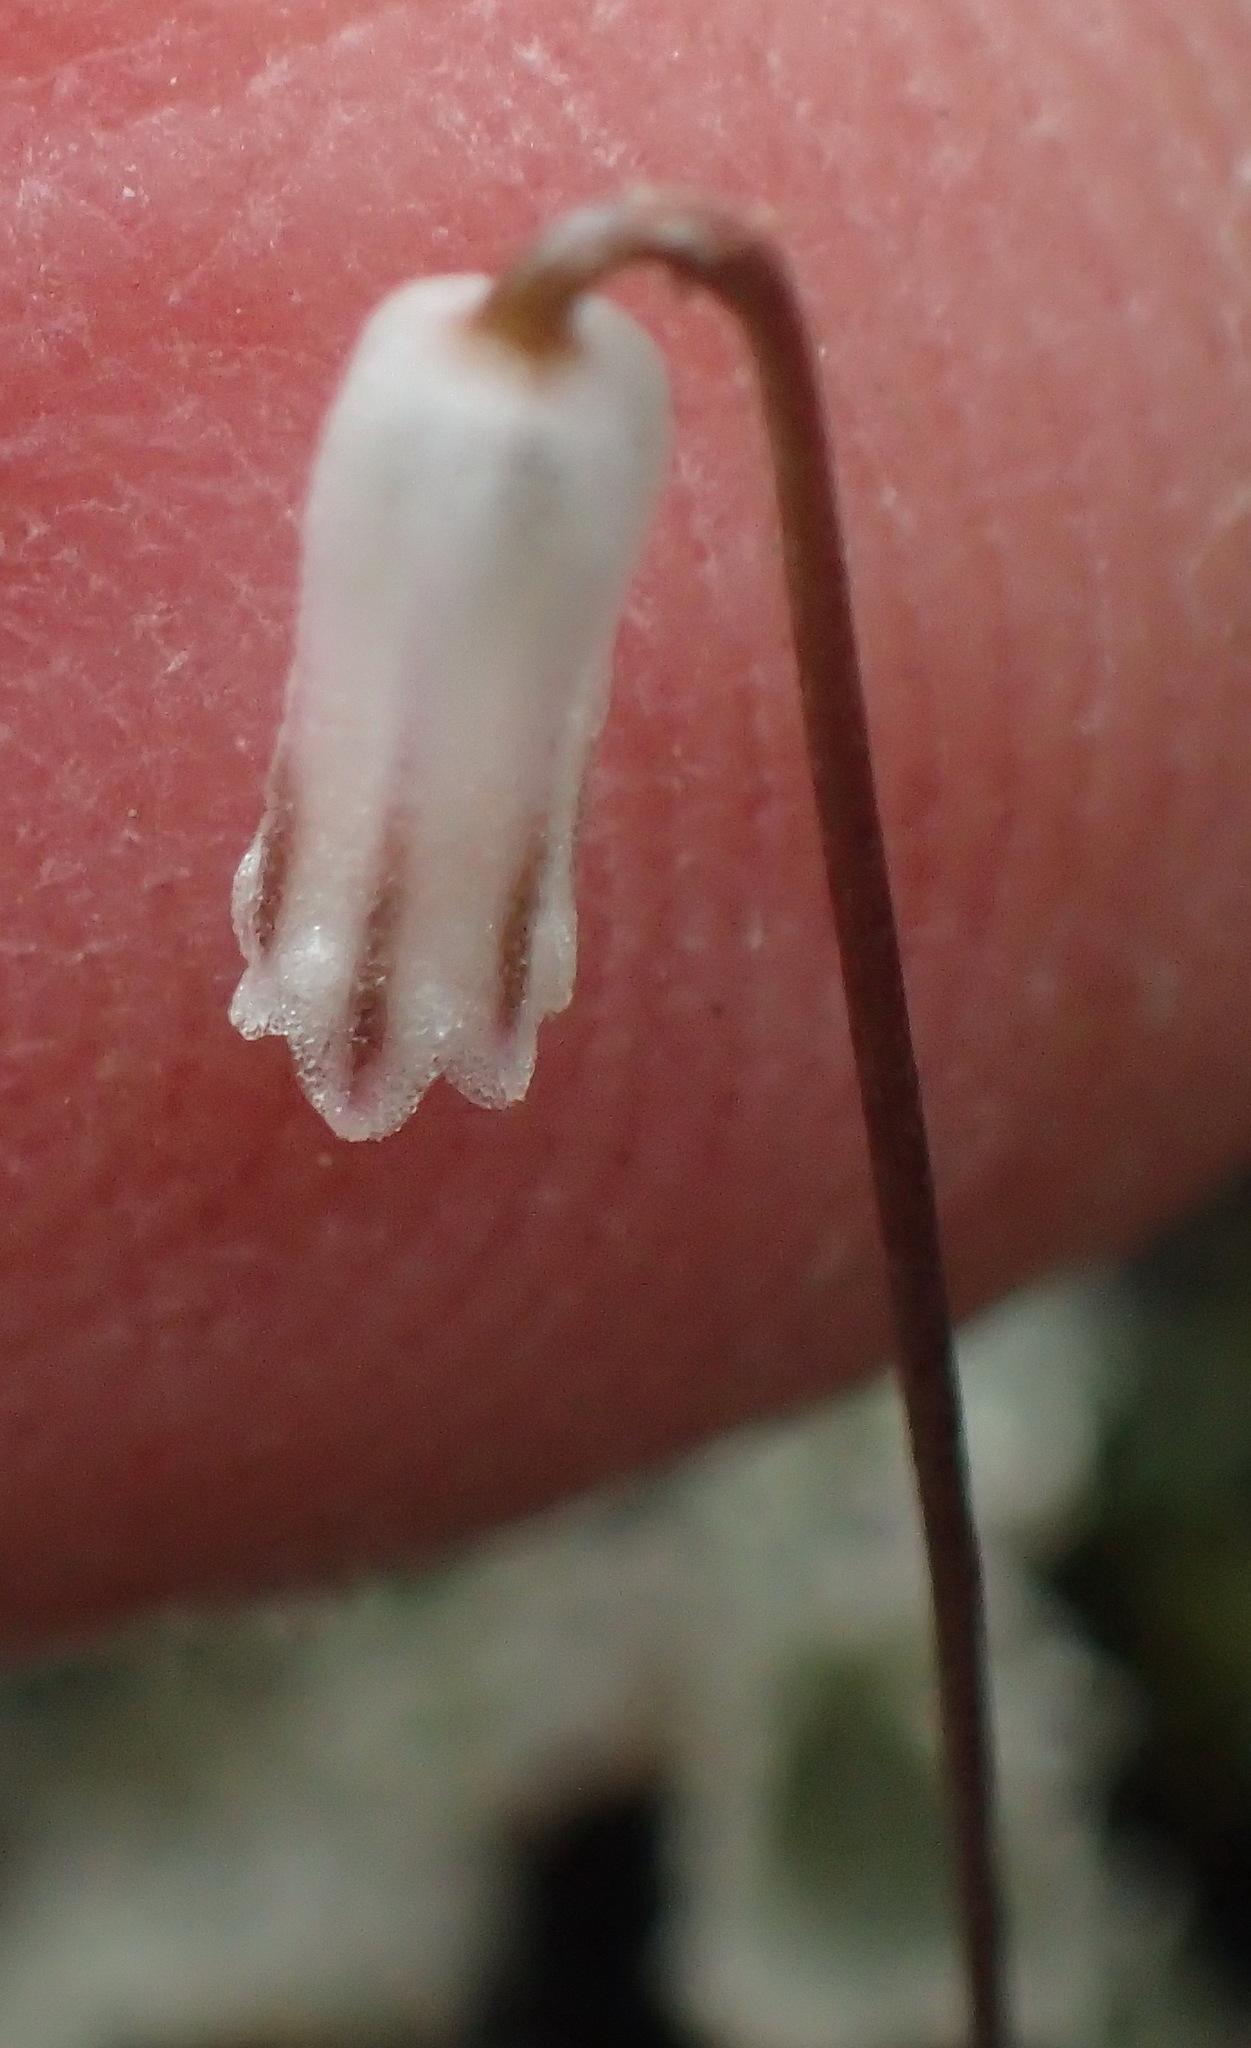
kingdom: Plantae
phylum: Tracheophyta
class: Liliopsida
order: Asparagales
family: Asparagaceae
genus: Drimia
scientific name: Drimia uniflora
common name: Fairy bell
